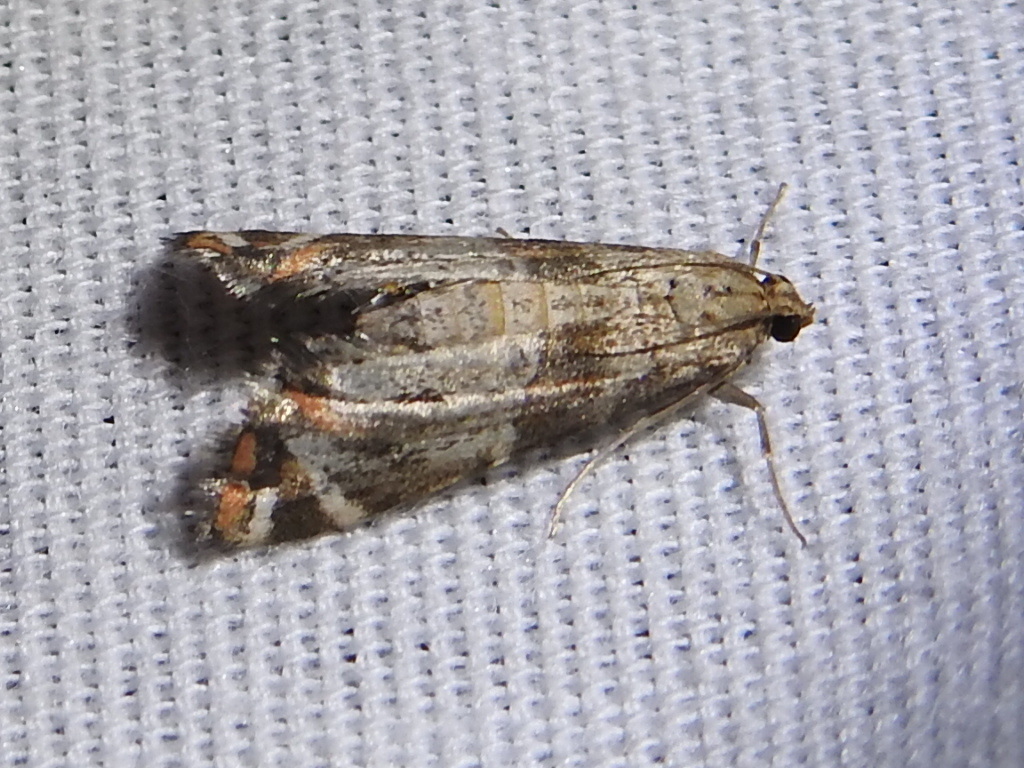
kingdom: Animalia
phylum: Arthropoda
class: Insecta
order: Lepidoptera
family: Crambidae
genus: Petrophila
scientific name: Petrophila jaliscalis
